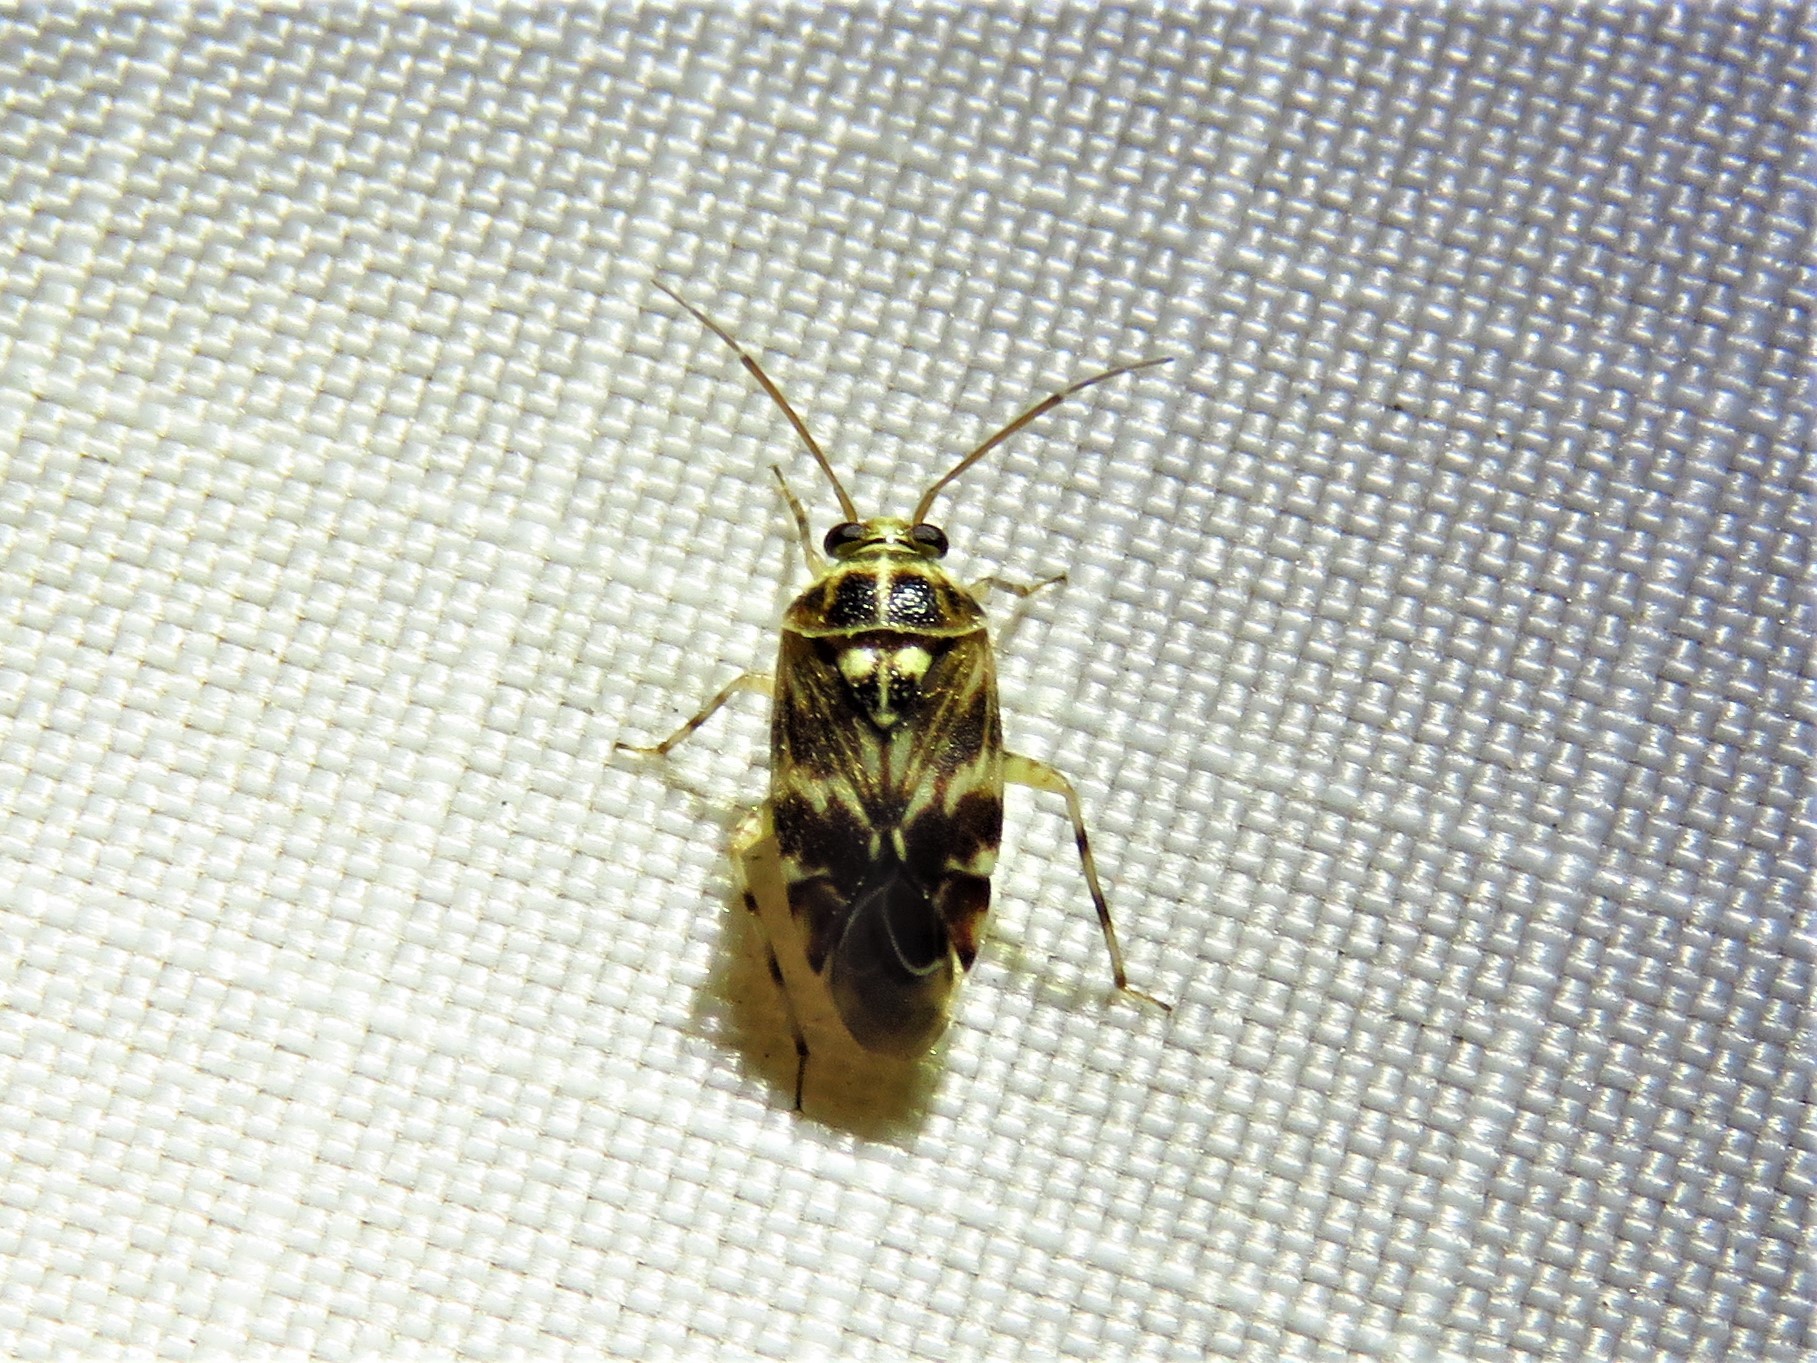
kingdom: Animalia
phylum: Arthropoda
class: Insecta
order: Hemiptera
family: Miridae
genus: Tropidosteptes
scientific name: Tropidosteptes quercicola
